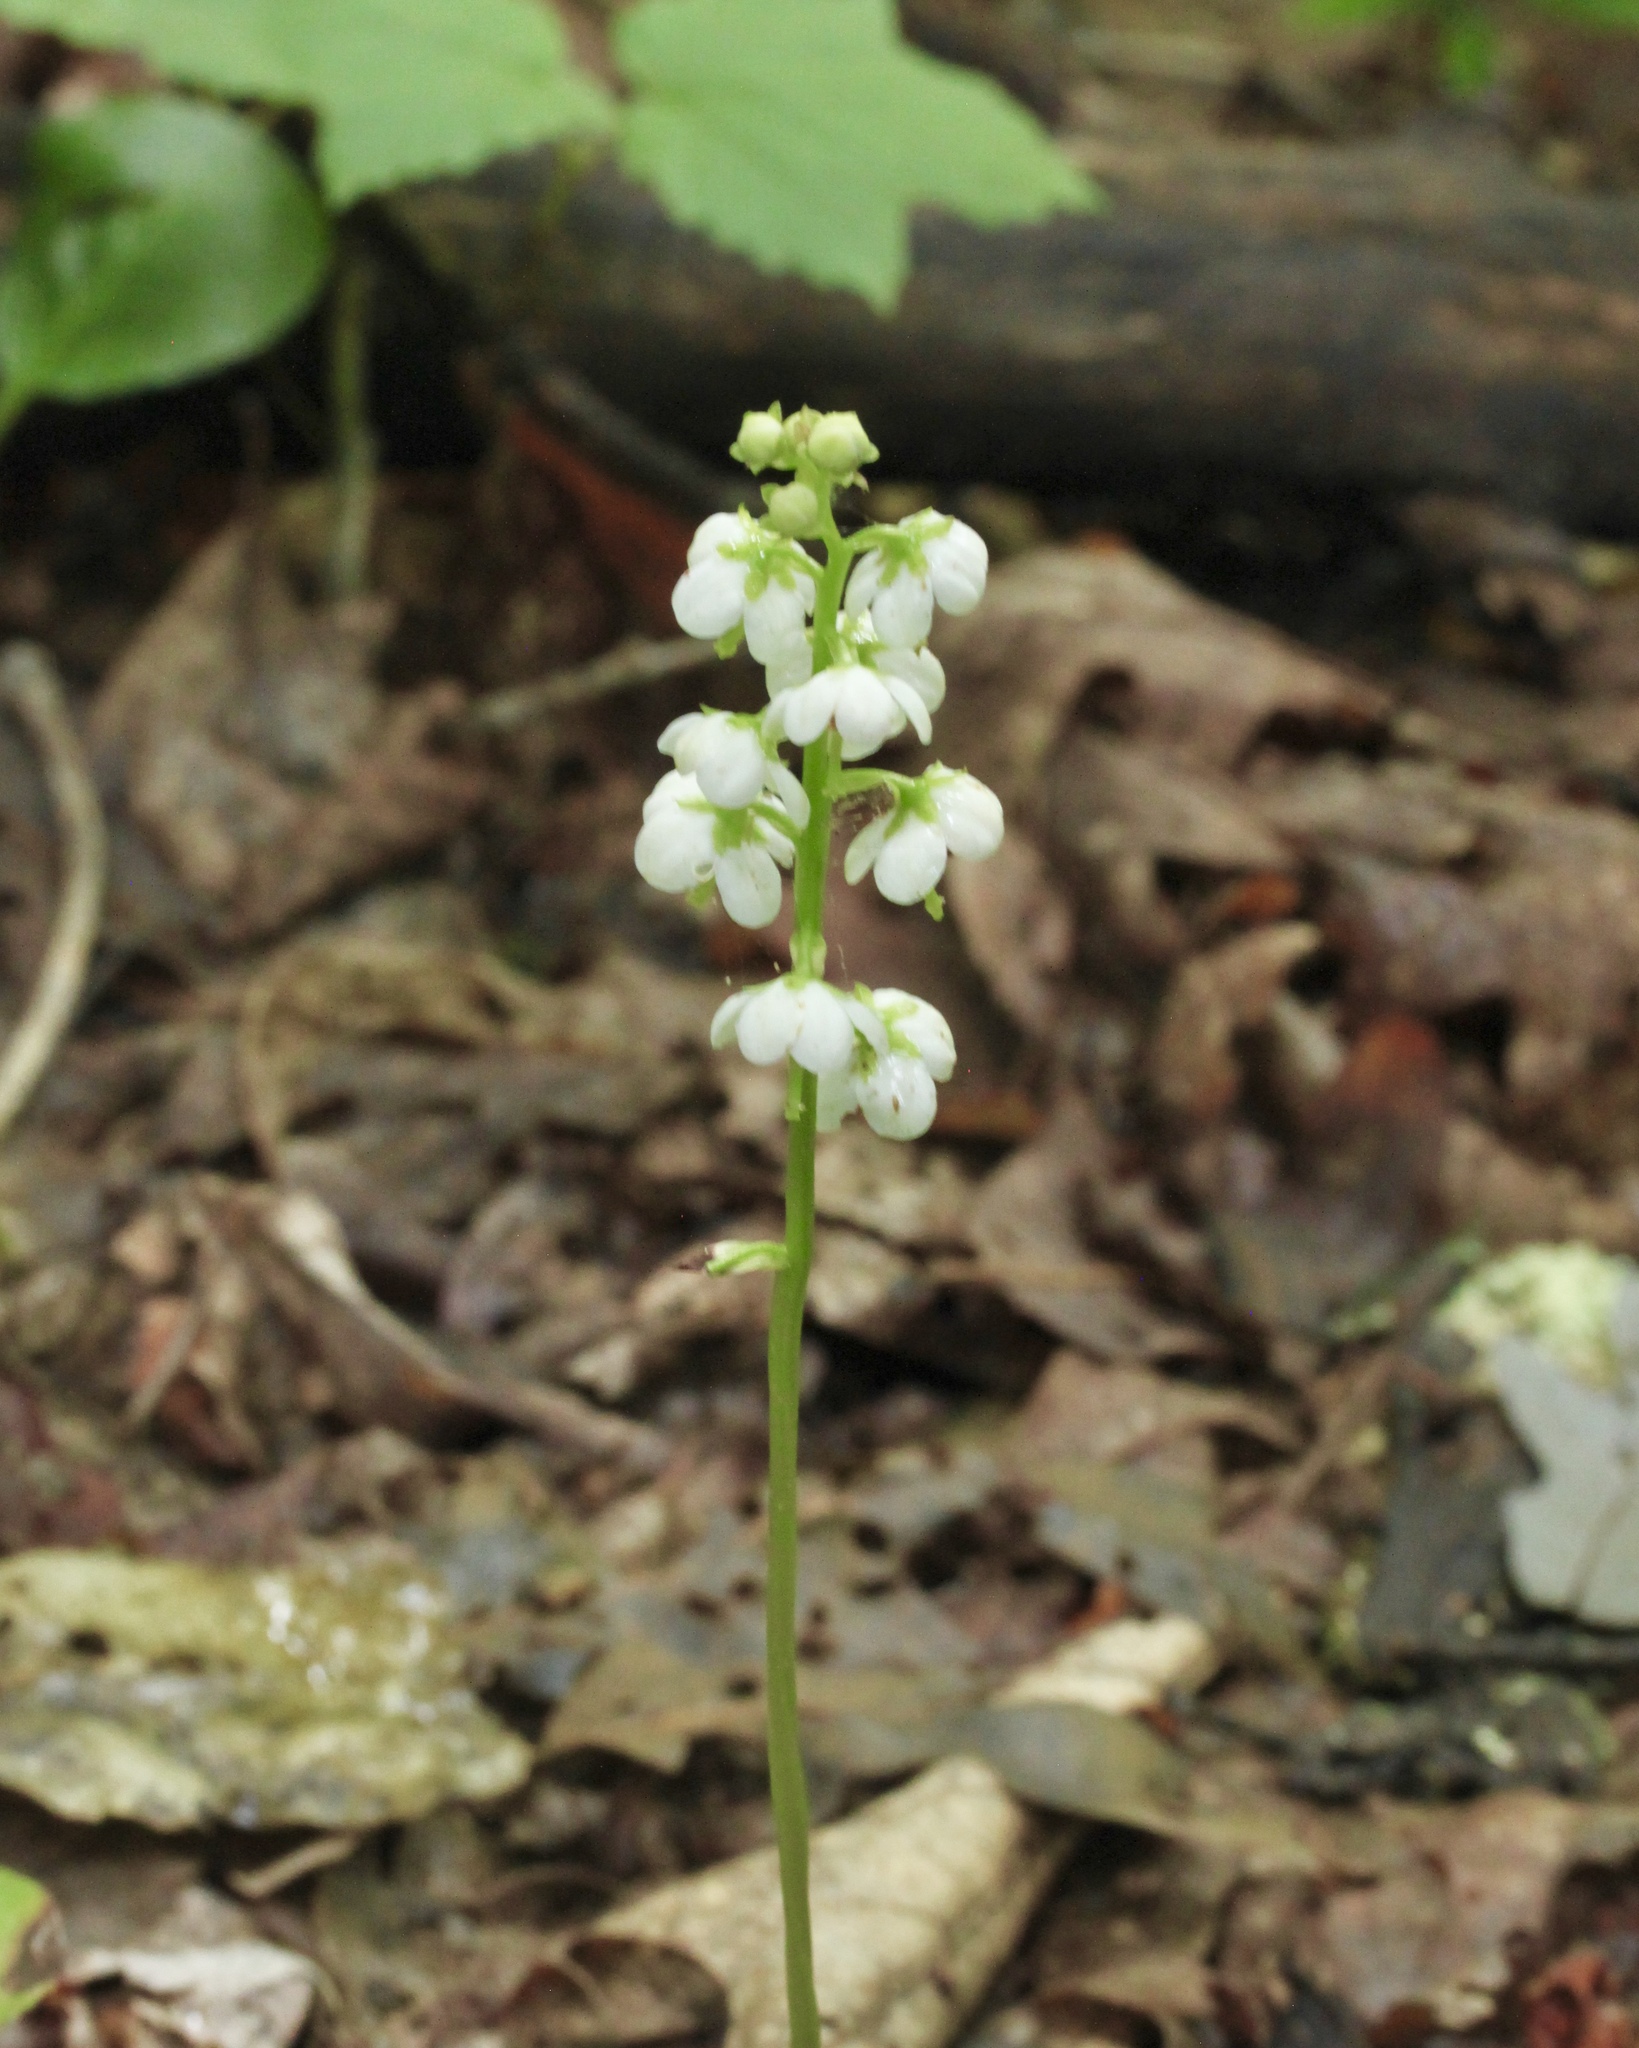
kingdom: Plantae
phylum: Tracheophyta
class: Magnoliopsida
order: Ericales
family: Ericaceae
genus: Pyrola
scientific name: Pyrola americana
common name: American wintergreen
